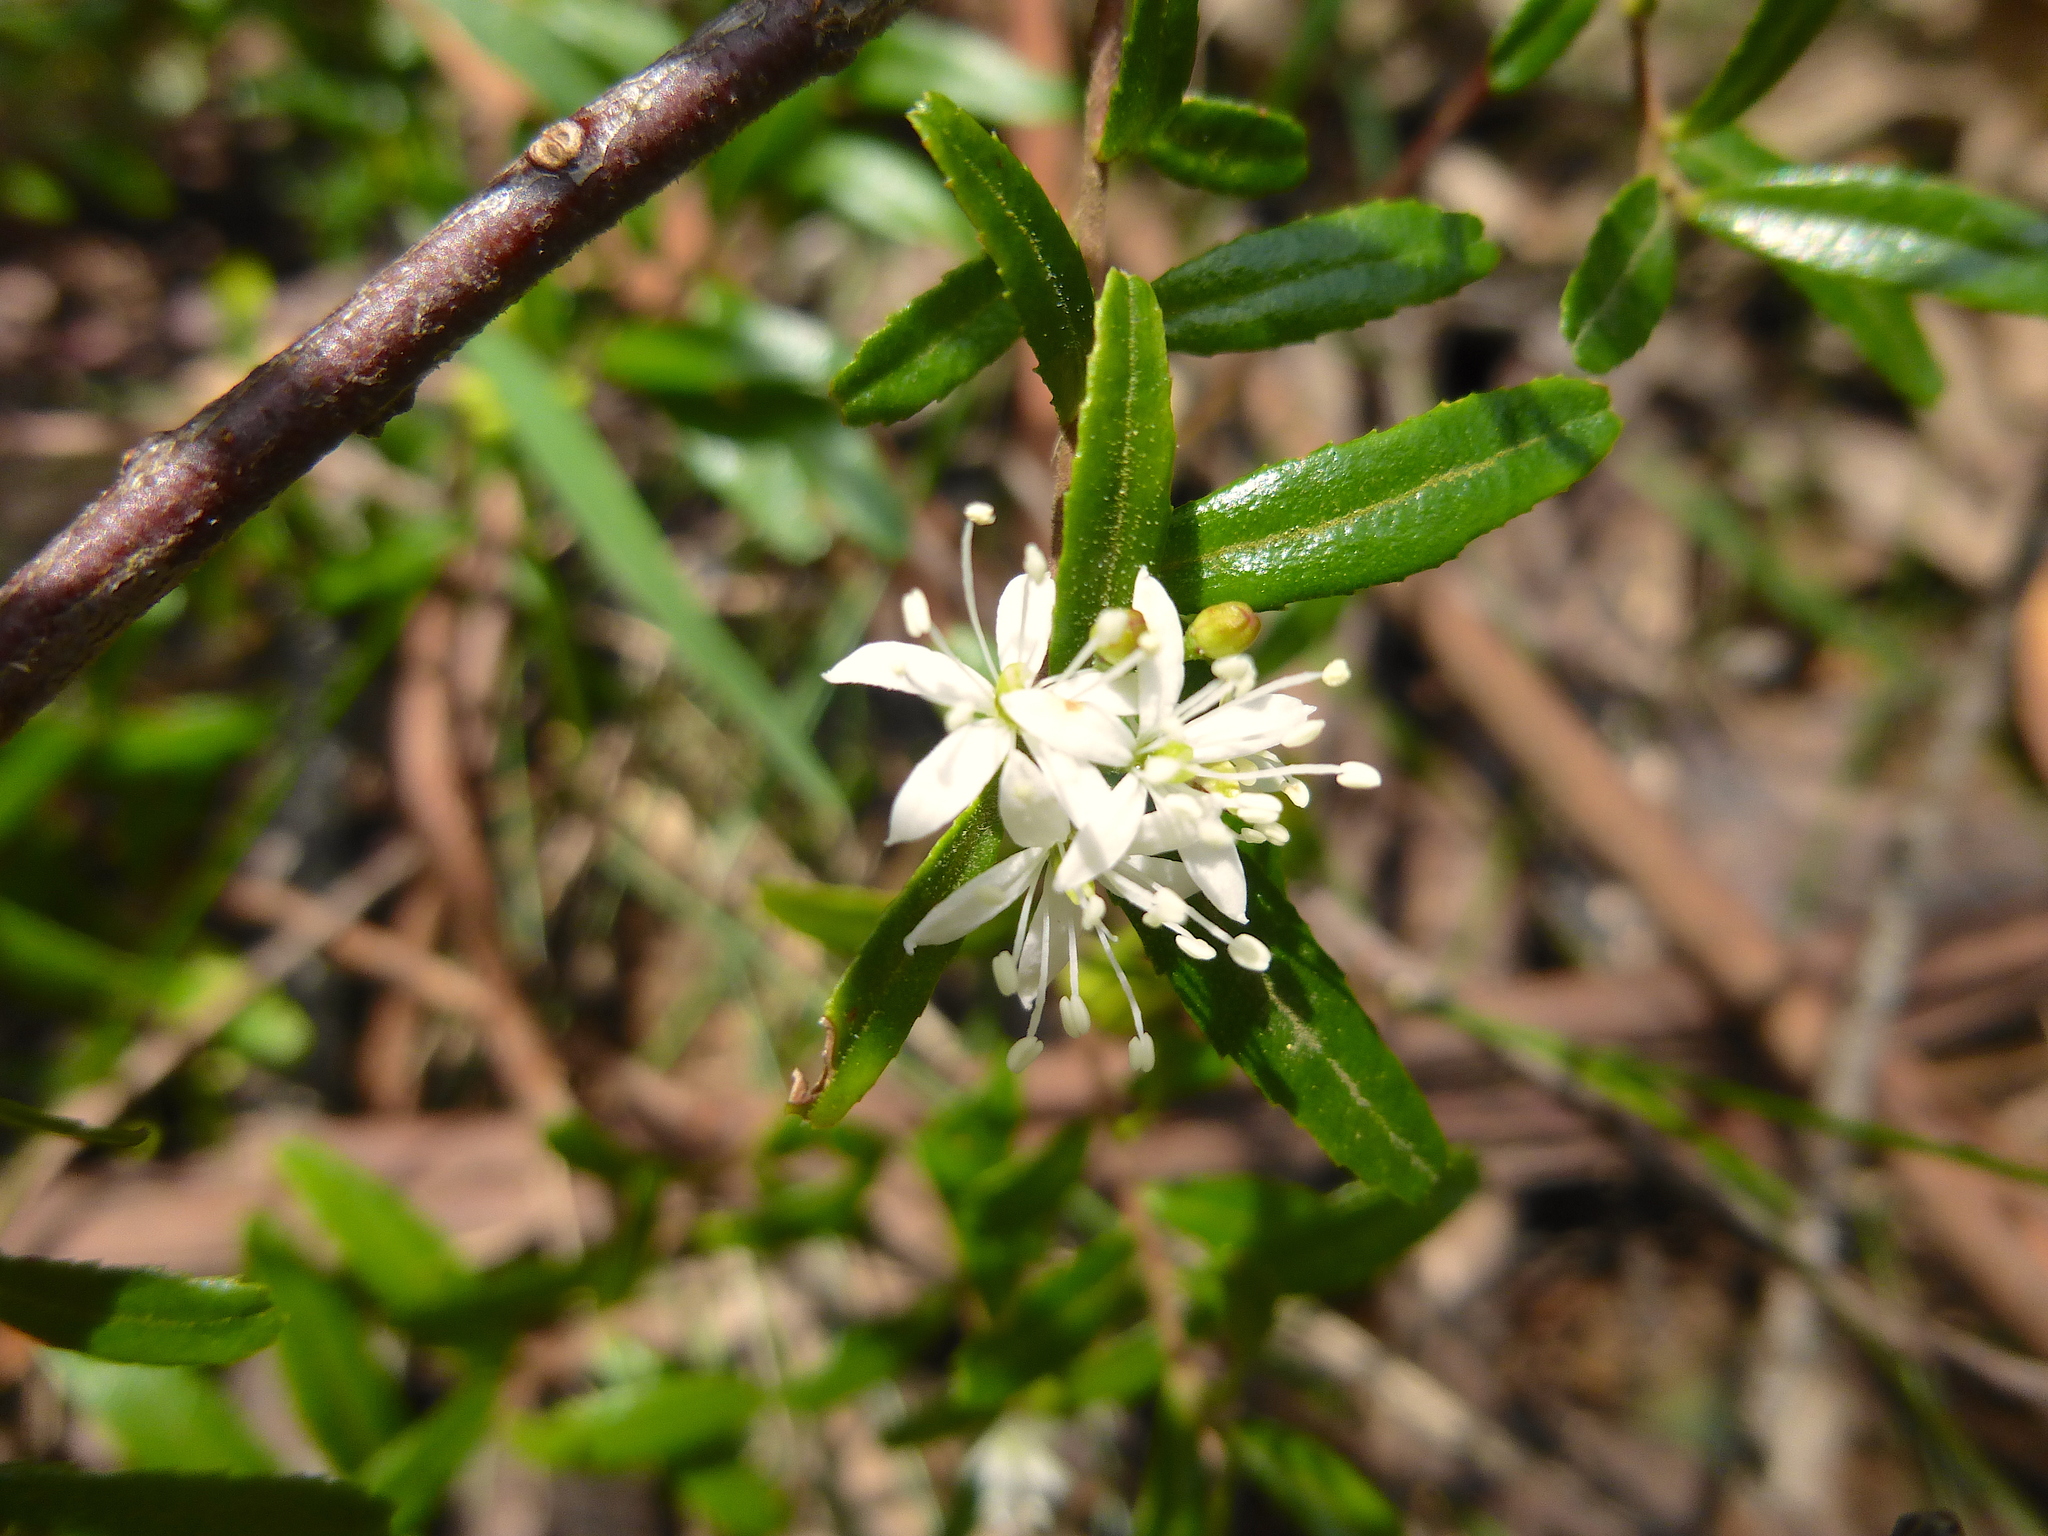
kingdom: Plantae
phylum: Tracheophyta
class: Magnoliopsida
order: Sapindales
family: Rutaceae
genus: Leionema
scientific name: Leionema bilobum
